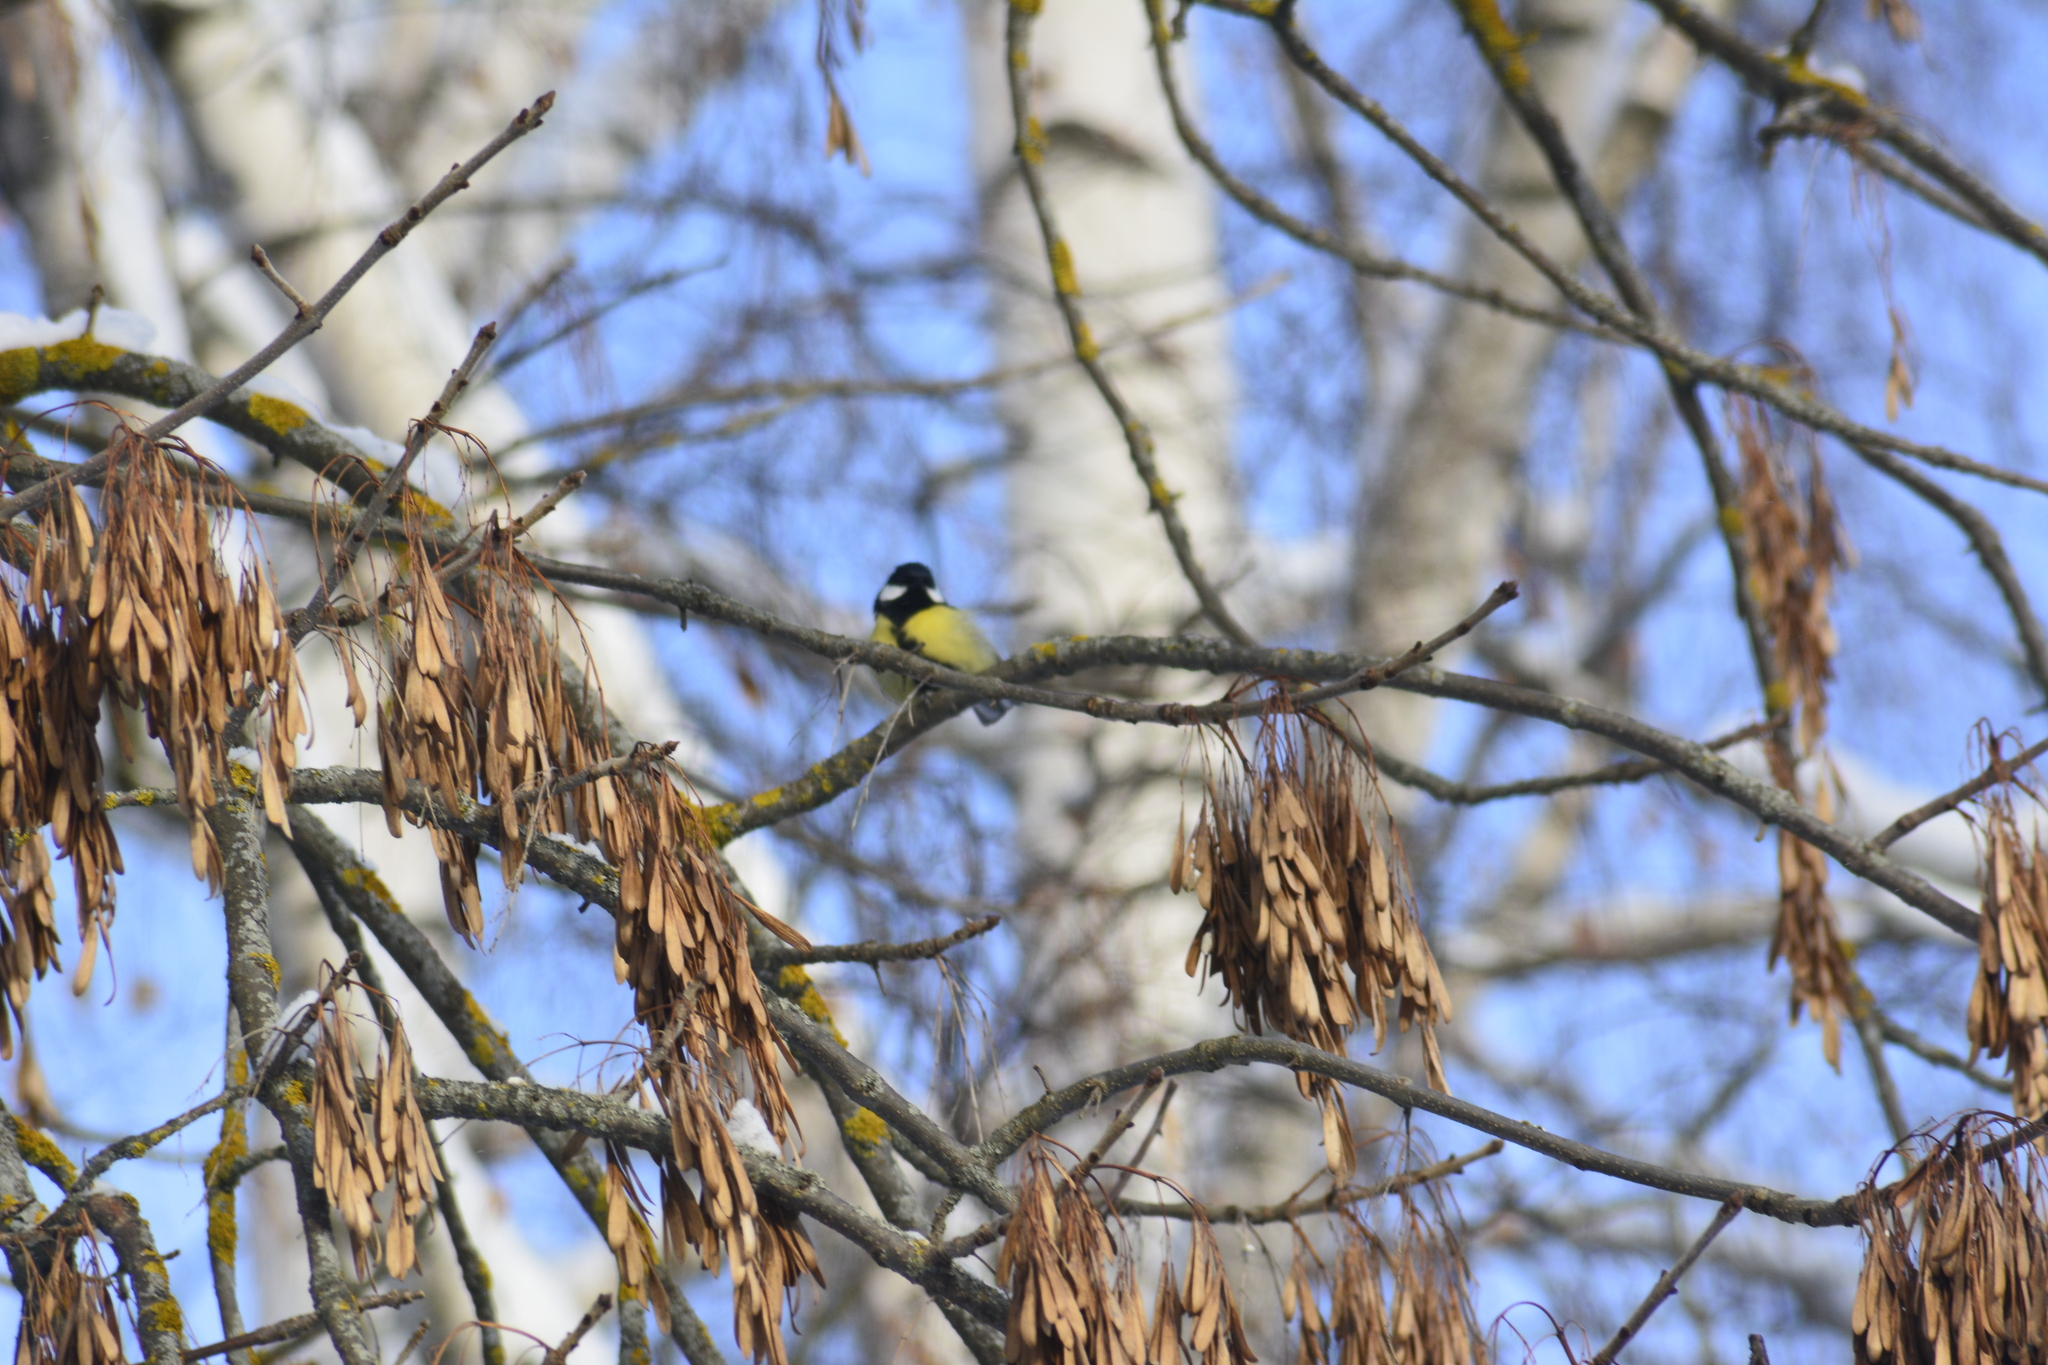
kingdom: Animalia
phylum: Chordata
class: Aves
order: Passeriformes
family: Paridae
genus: Parus
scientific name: Parus major
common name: Great tit
